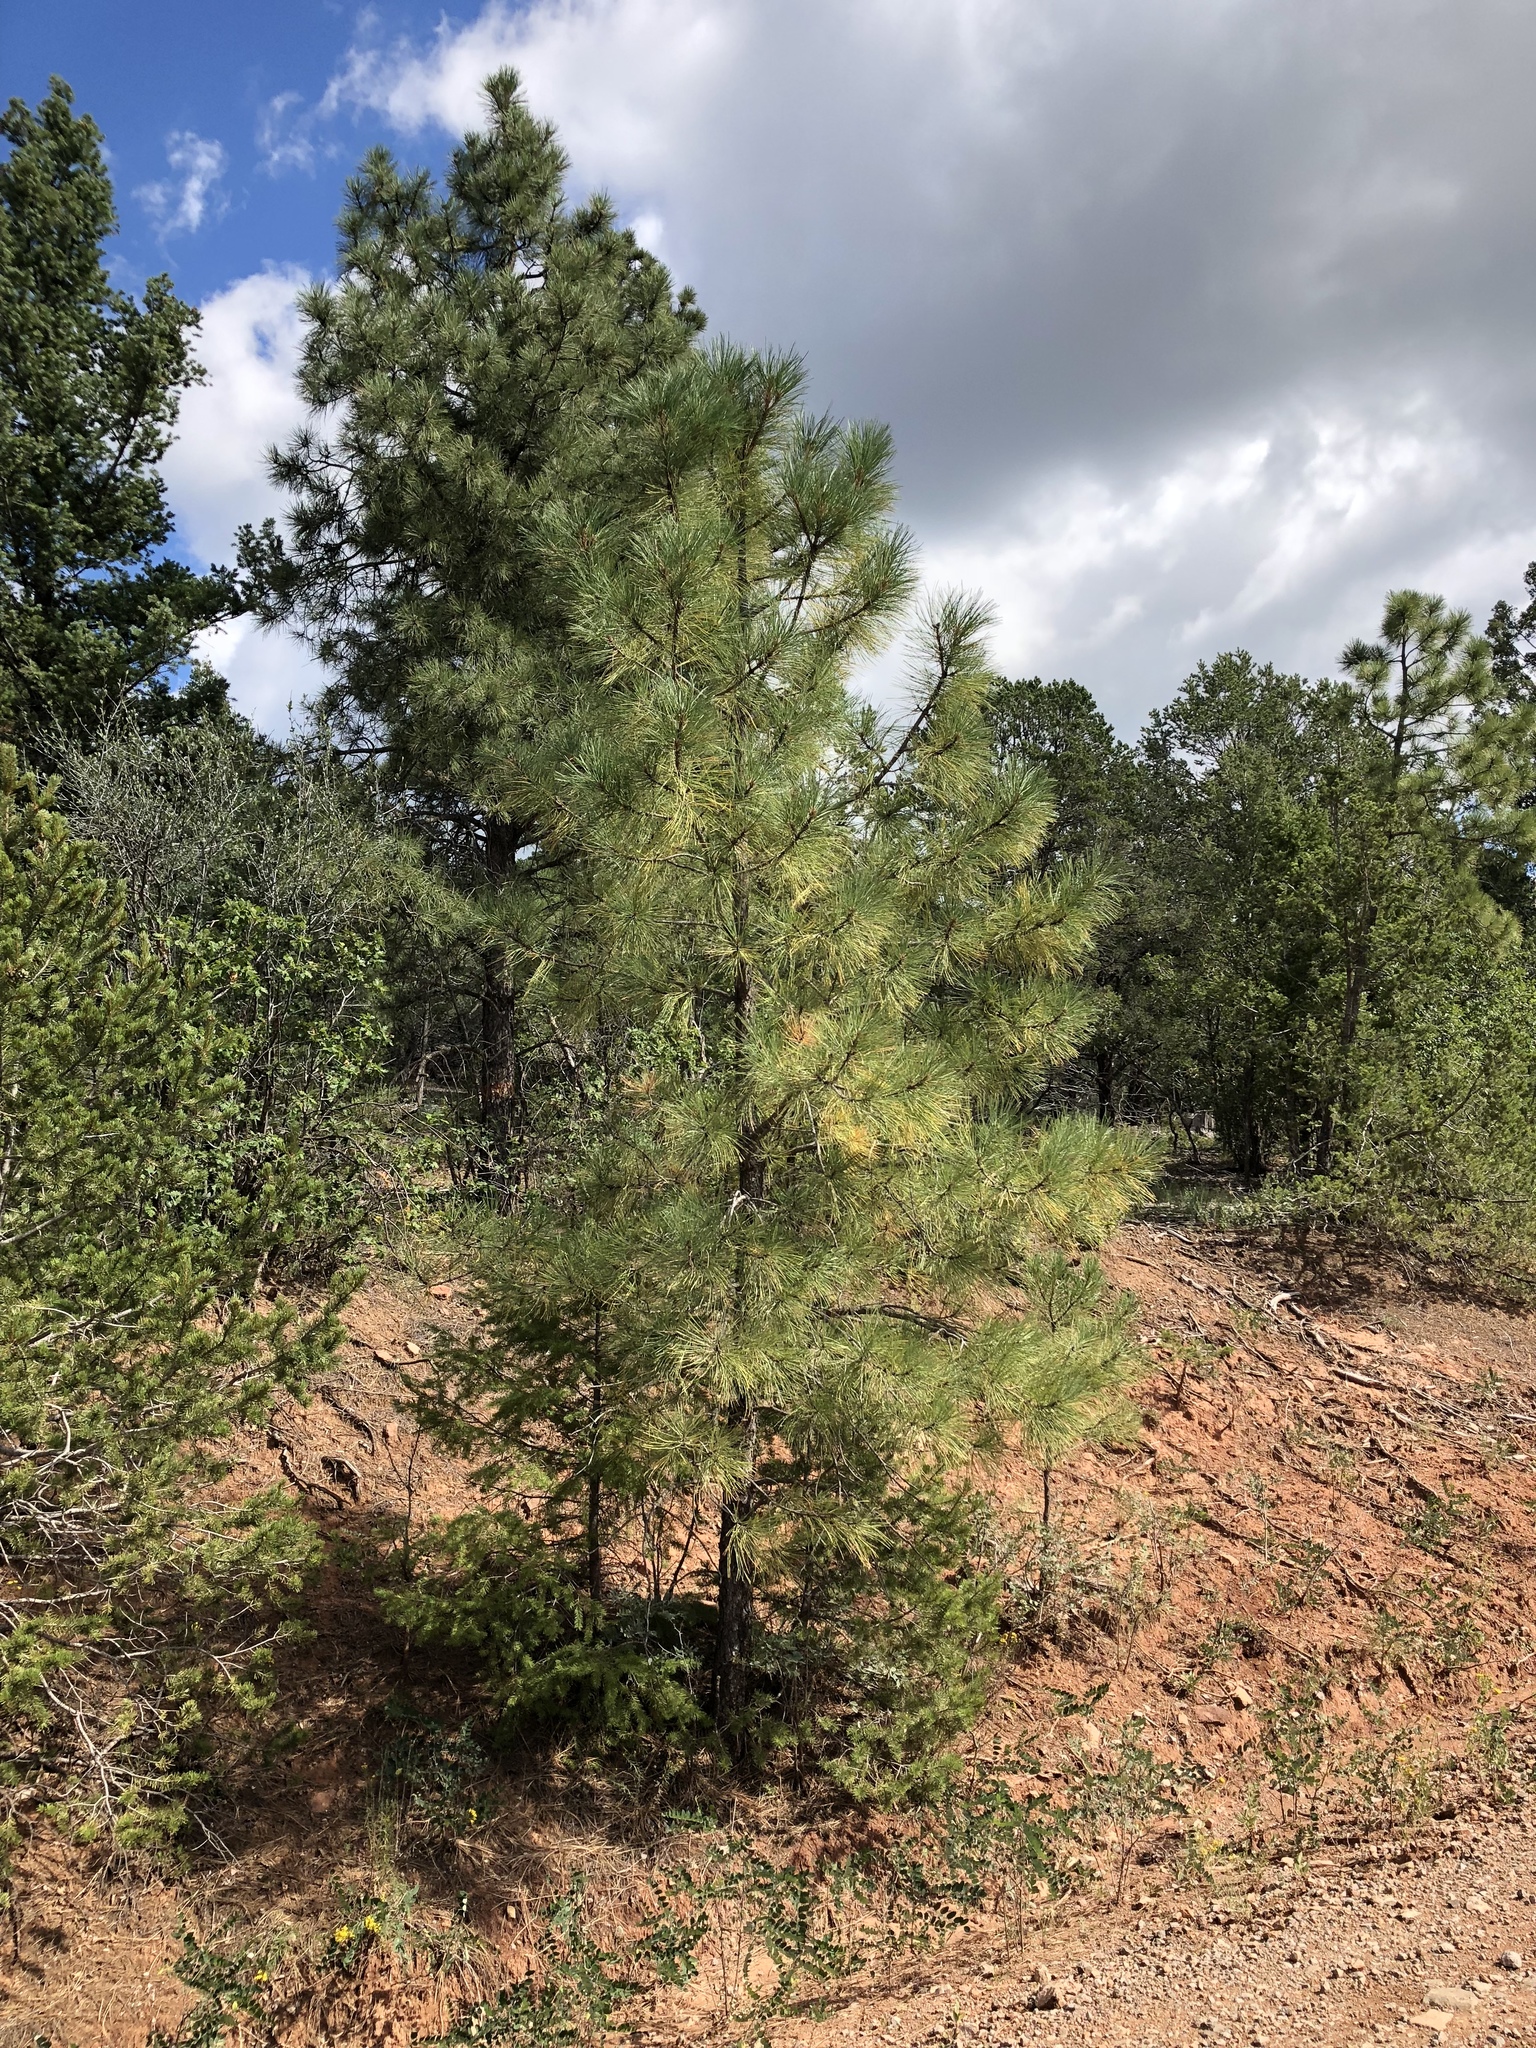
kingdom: Plantae
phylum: Tracheophyta
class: Pinopsida
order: Pinales
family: Pinaceae
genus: Pinus
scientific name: Pinus ponderosa
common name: Western yellow-pine
